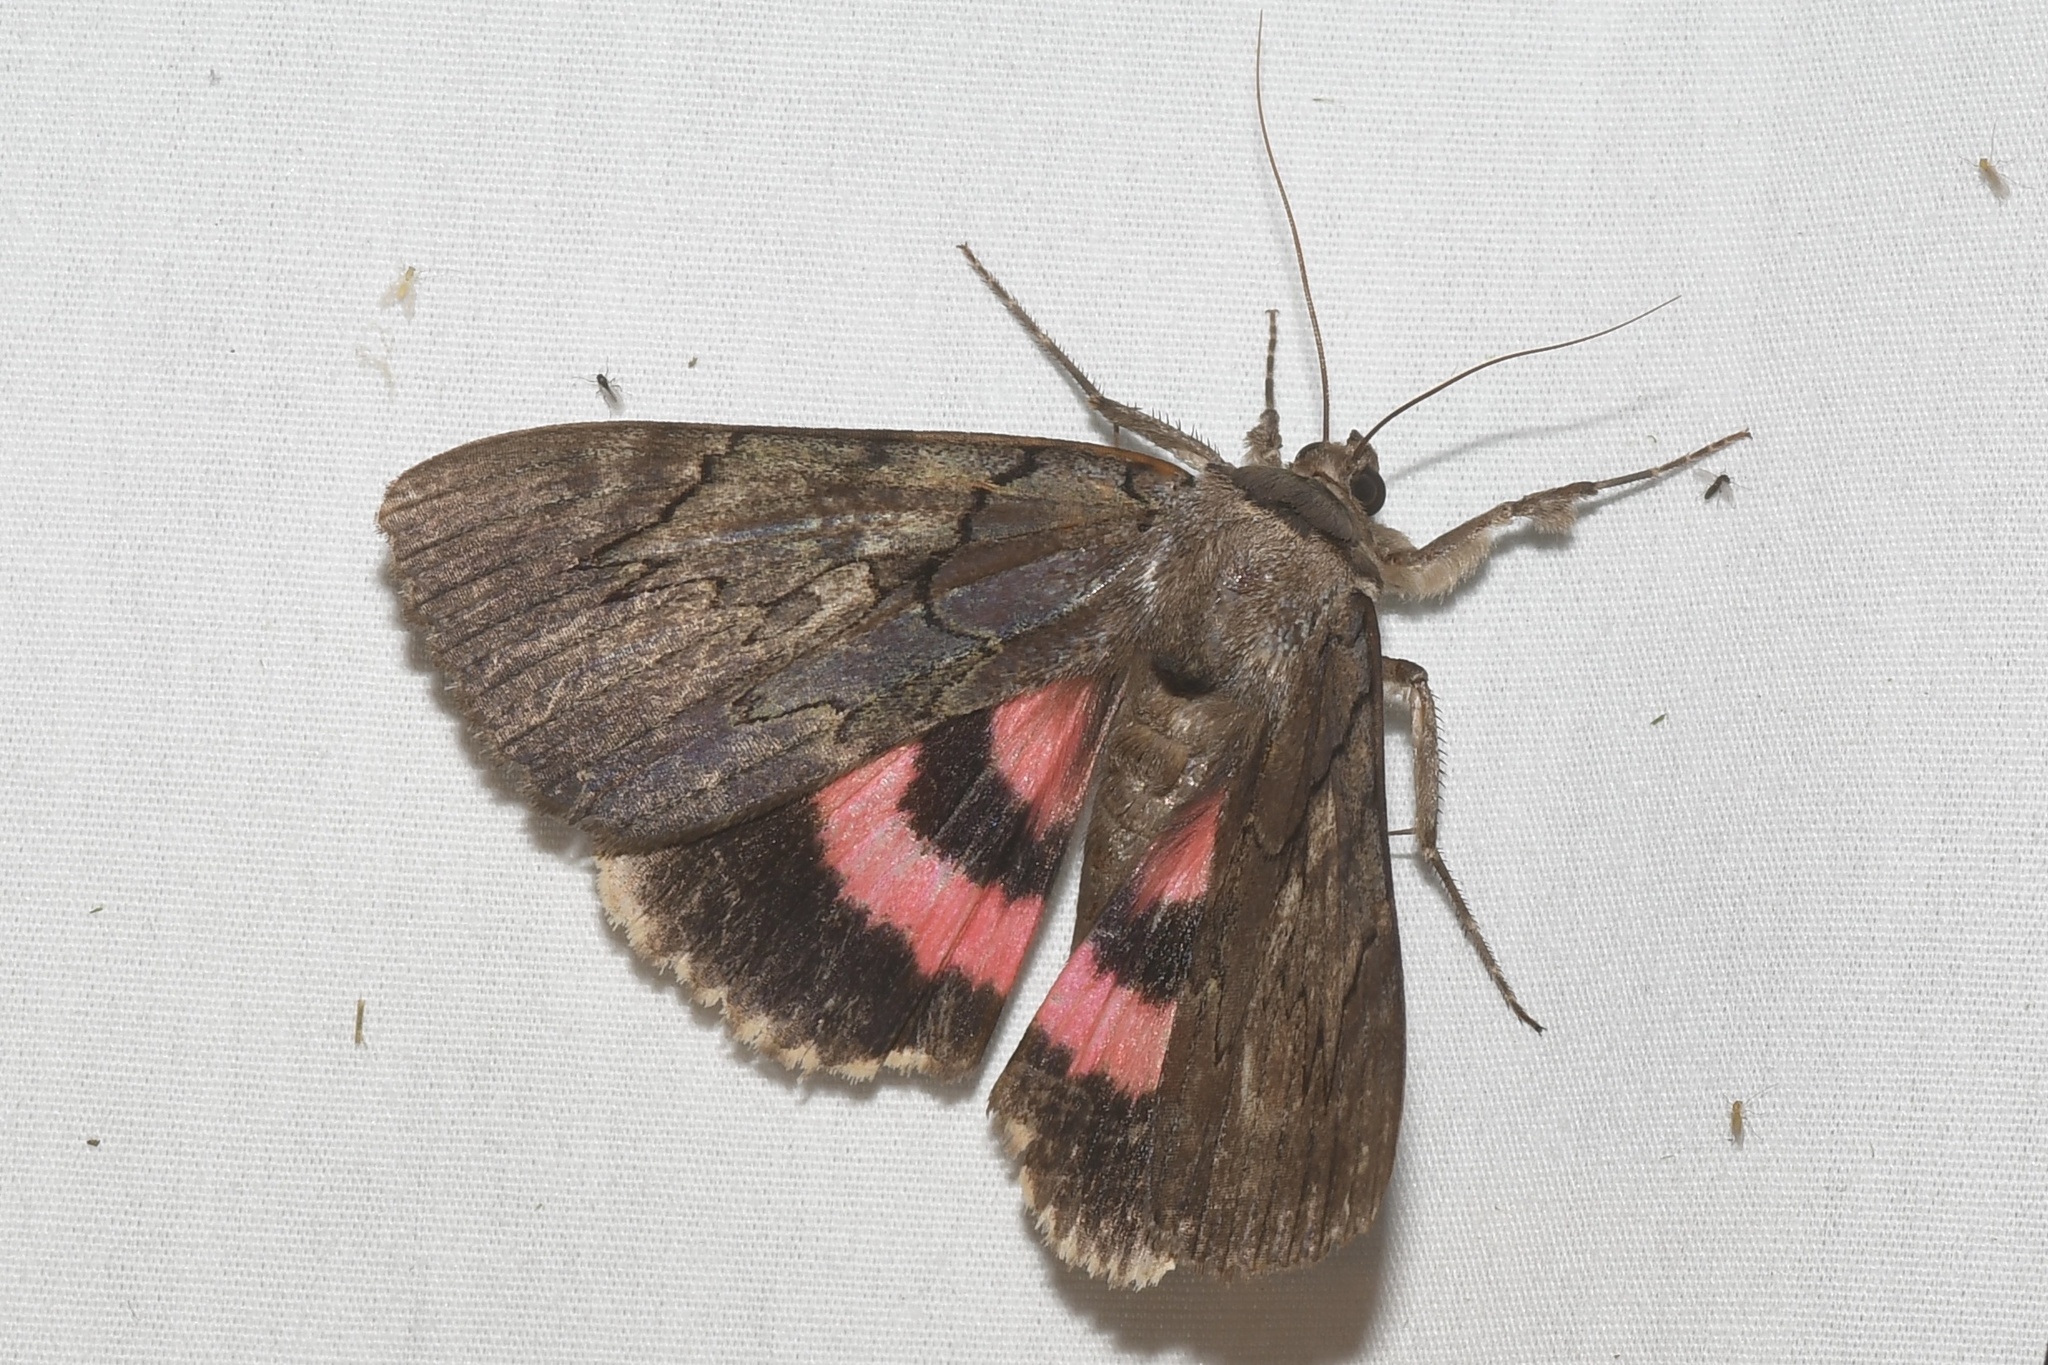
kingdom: Animalia
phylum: Arthropoda
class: Insecta
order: Lepidoptera
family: Erebidae
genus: Catocala
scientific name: Catocala cara
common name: Darling underwing
